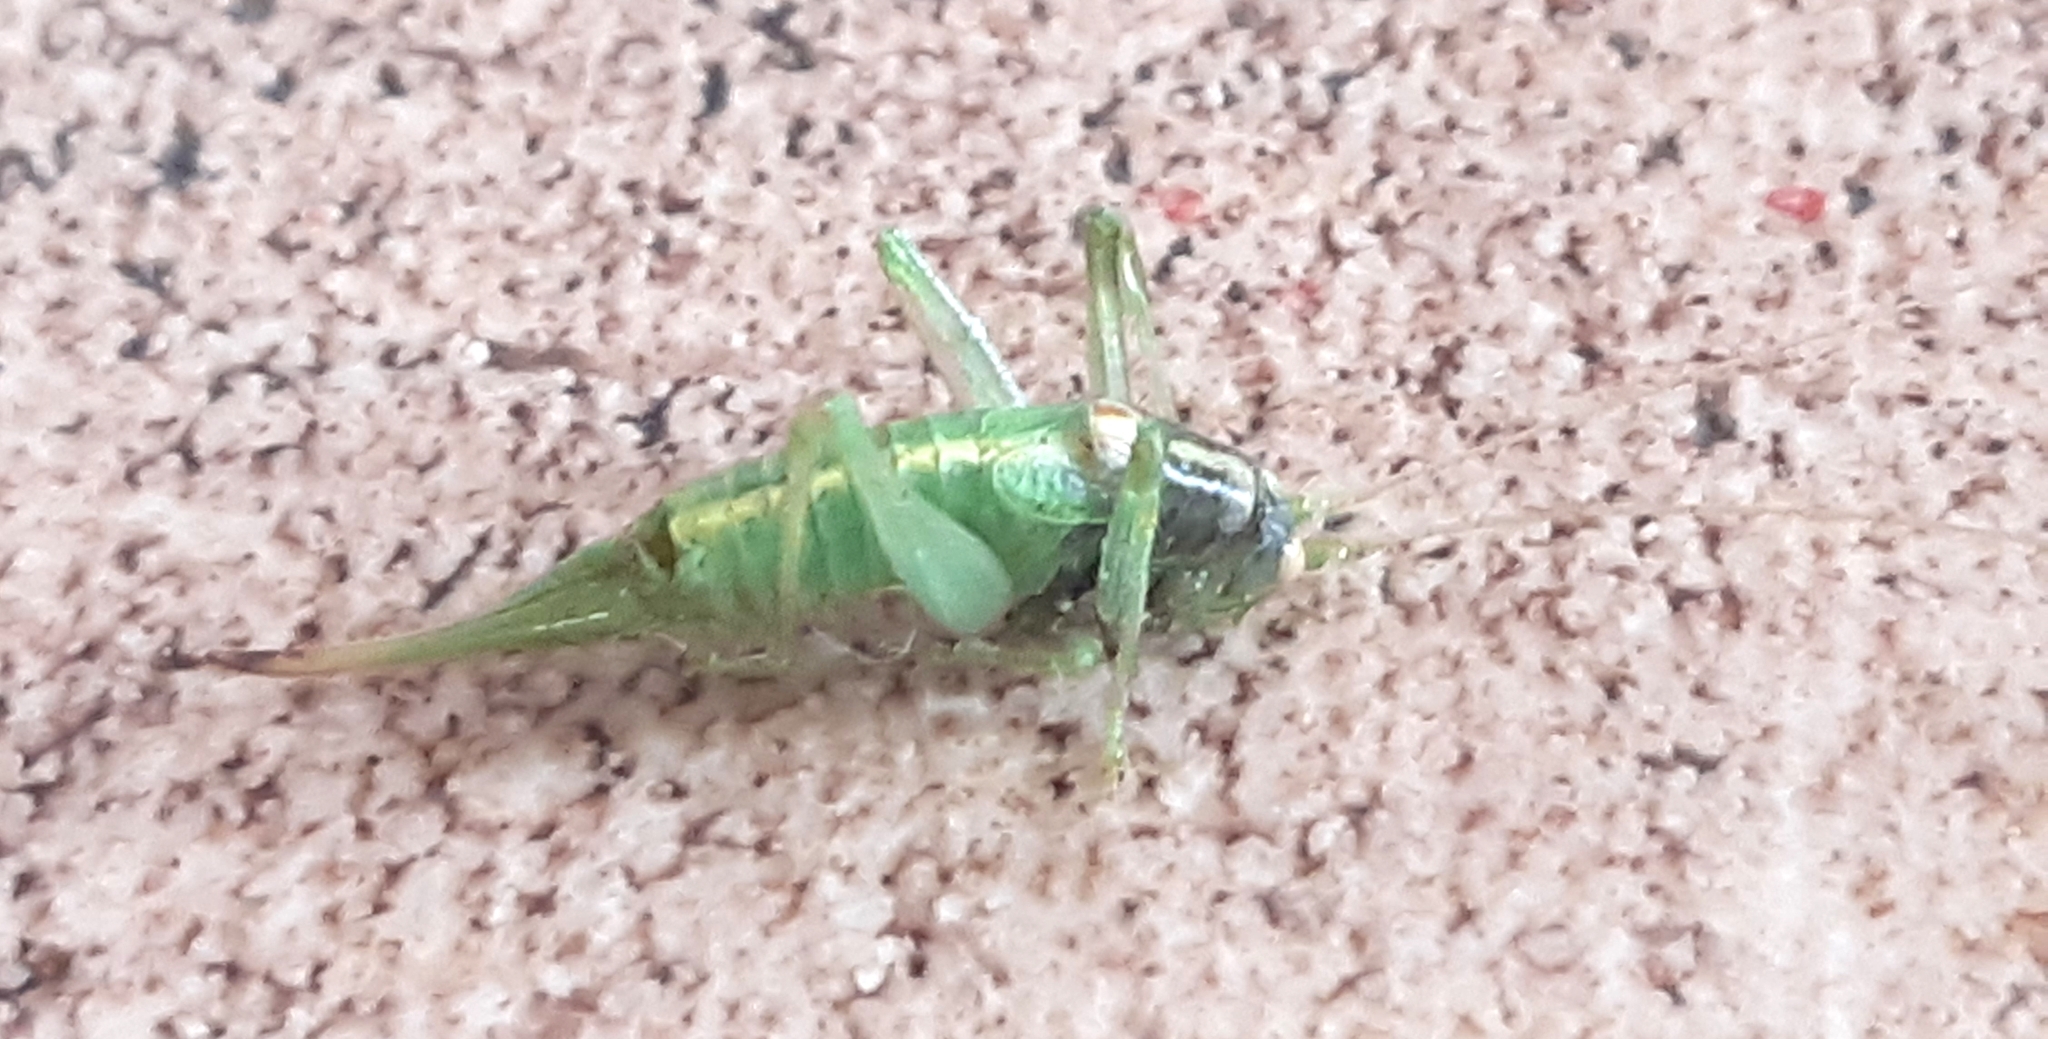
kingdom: Animalia
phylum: Arthropoda
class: Insecta
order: Orthoptera
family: Tettigoniidae
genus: Meconema
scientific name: Meconema meridionale
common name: Southern oak bush-cricket
